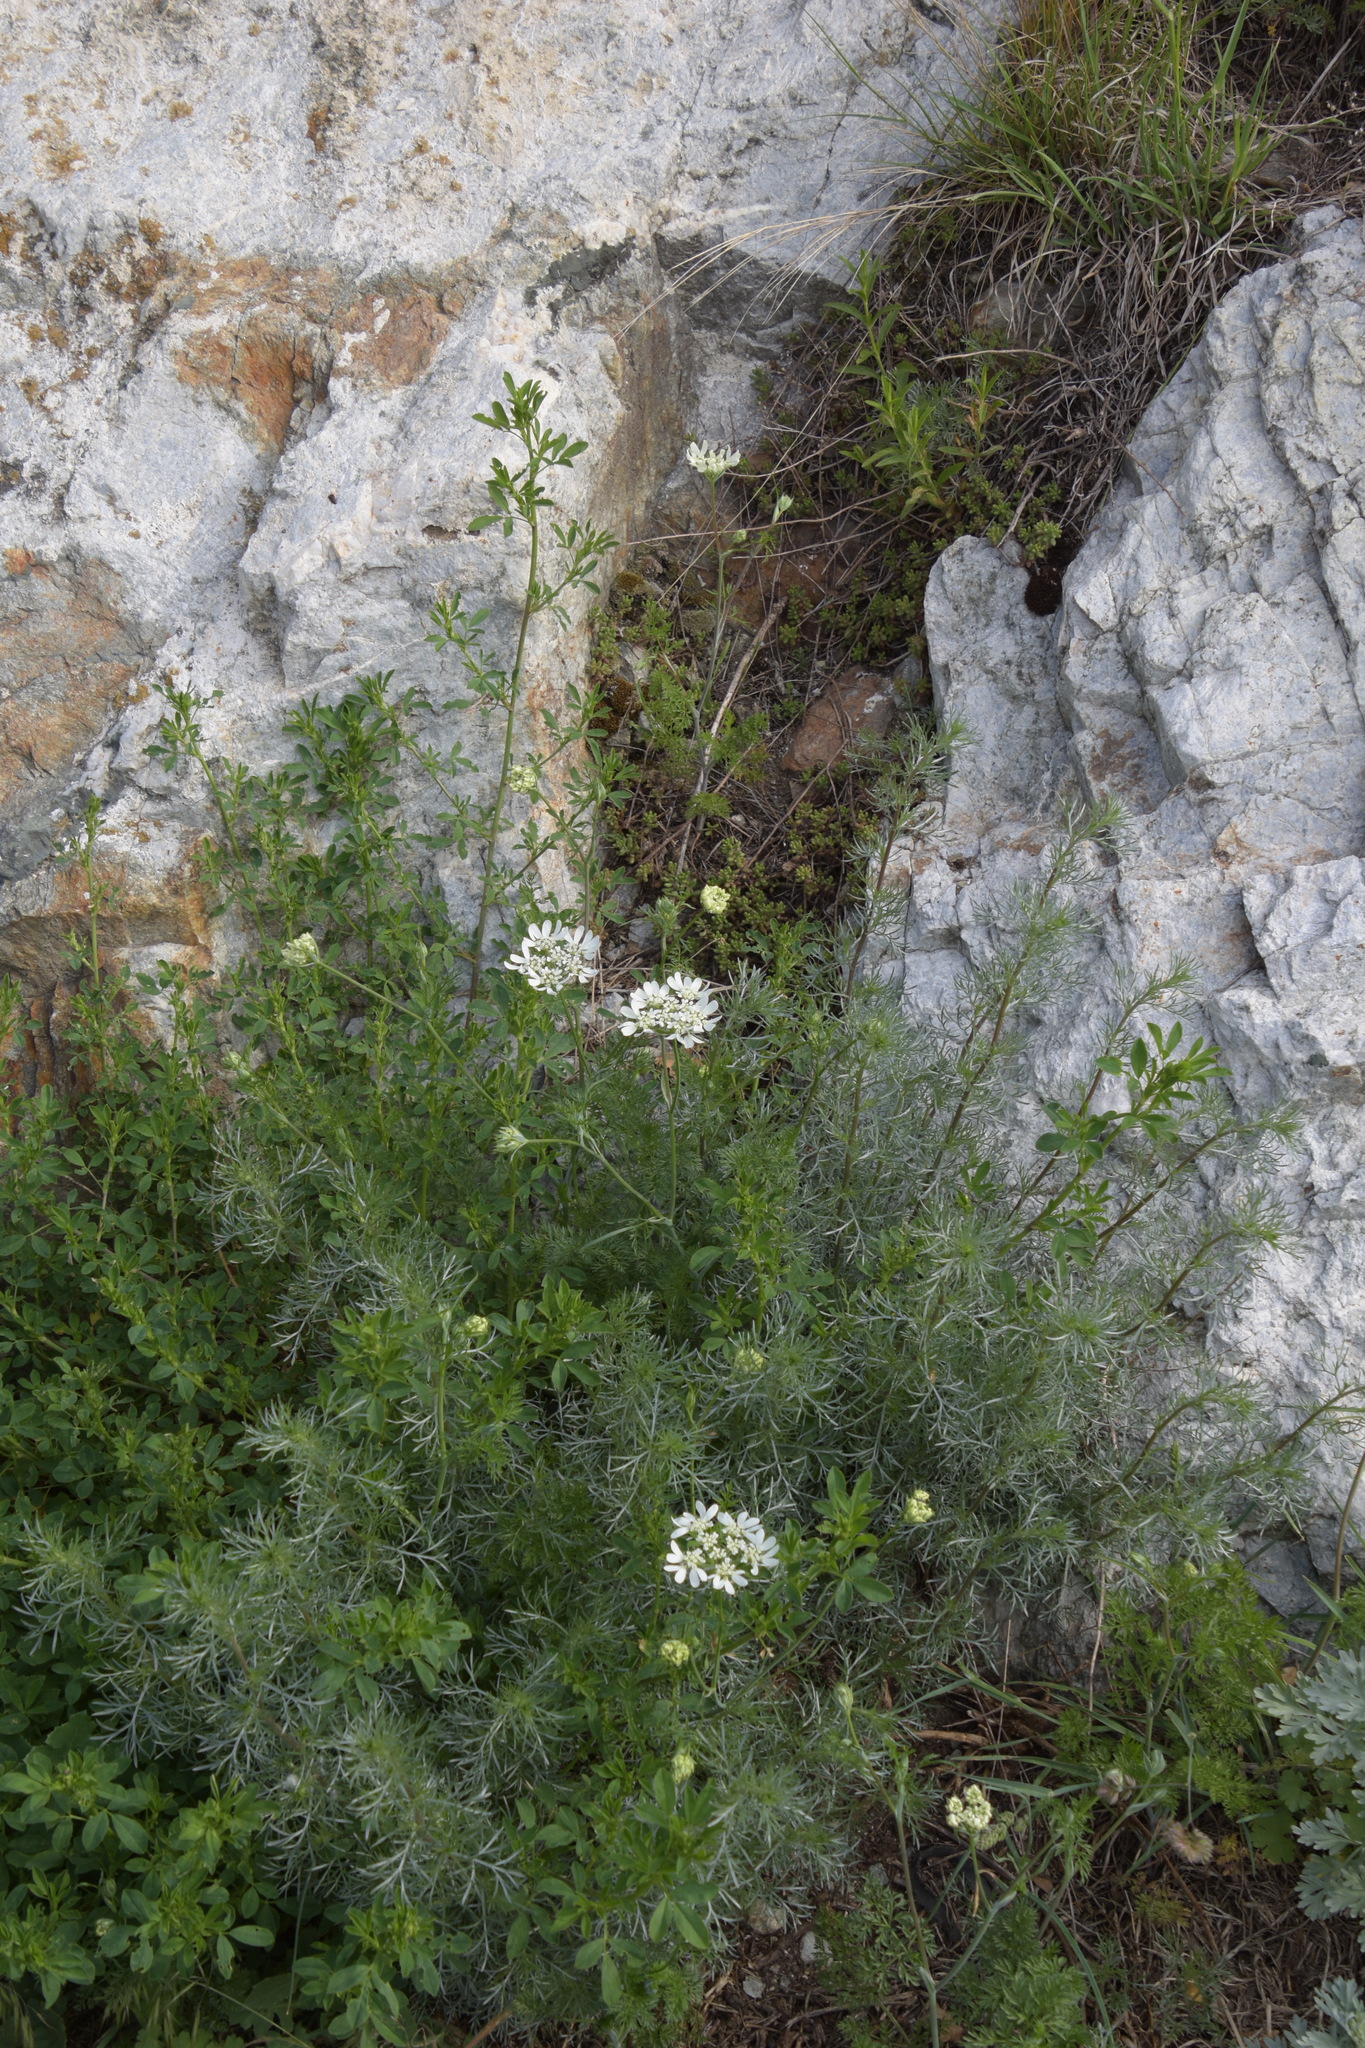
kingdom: Plantae
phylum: Tracheophyta
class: Magnoliopsida
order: Apiales
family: Apiaceae
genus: Orlaya
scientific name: Orlaya grandiflora
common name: White lace flower
